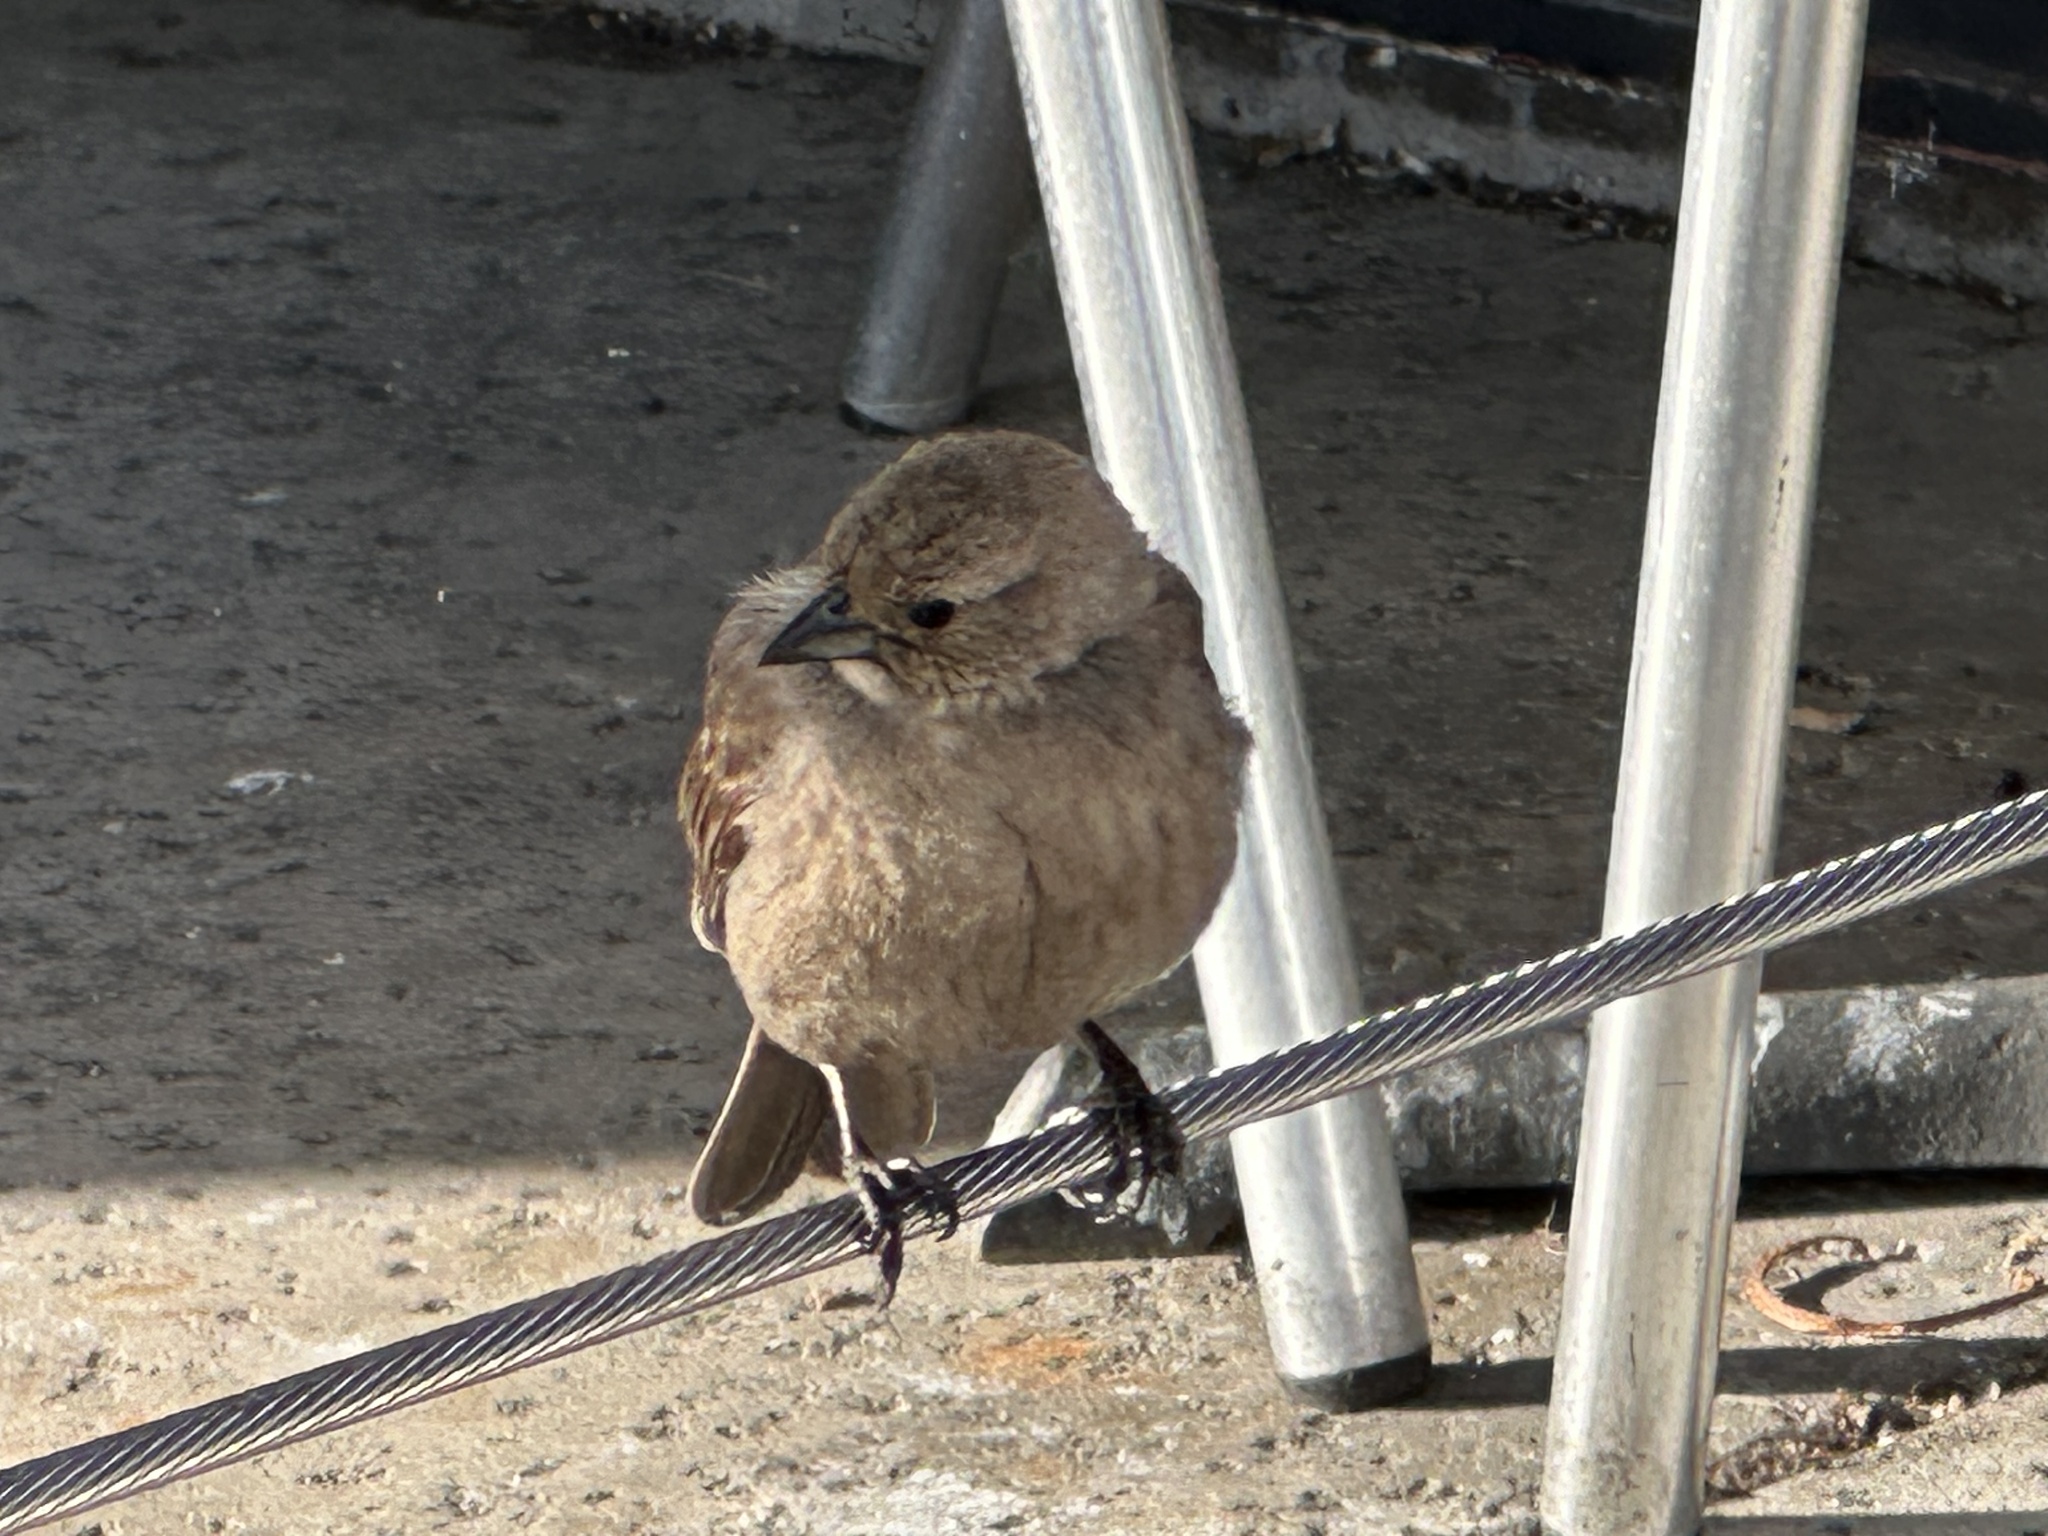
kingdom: Animalia
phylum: Chordata
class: Aves
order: Passeriformes
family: Icteridae
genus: Molothrus
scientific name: Molothrus ater
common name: Brown-headed cowbird
